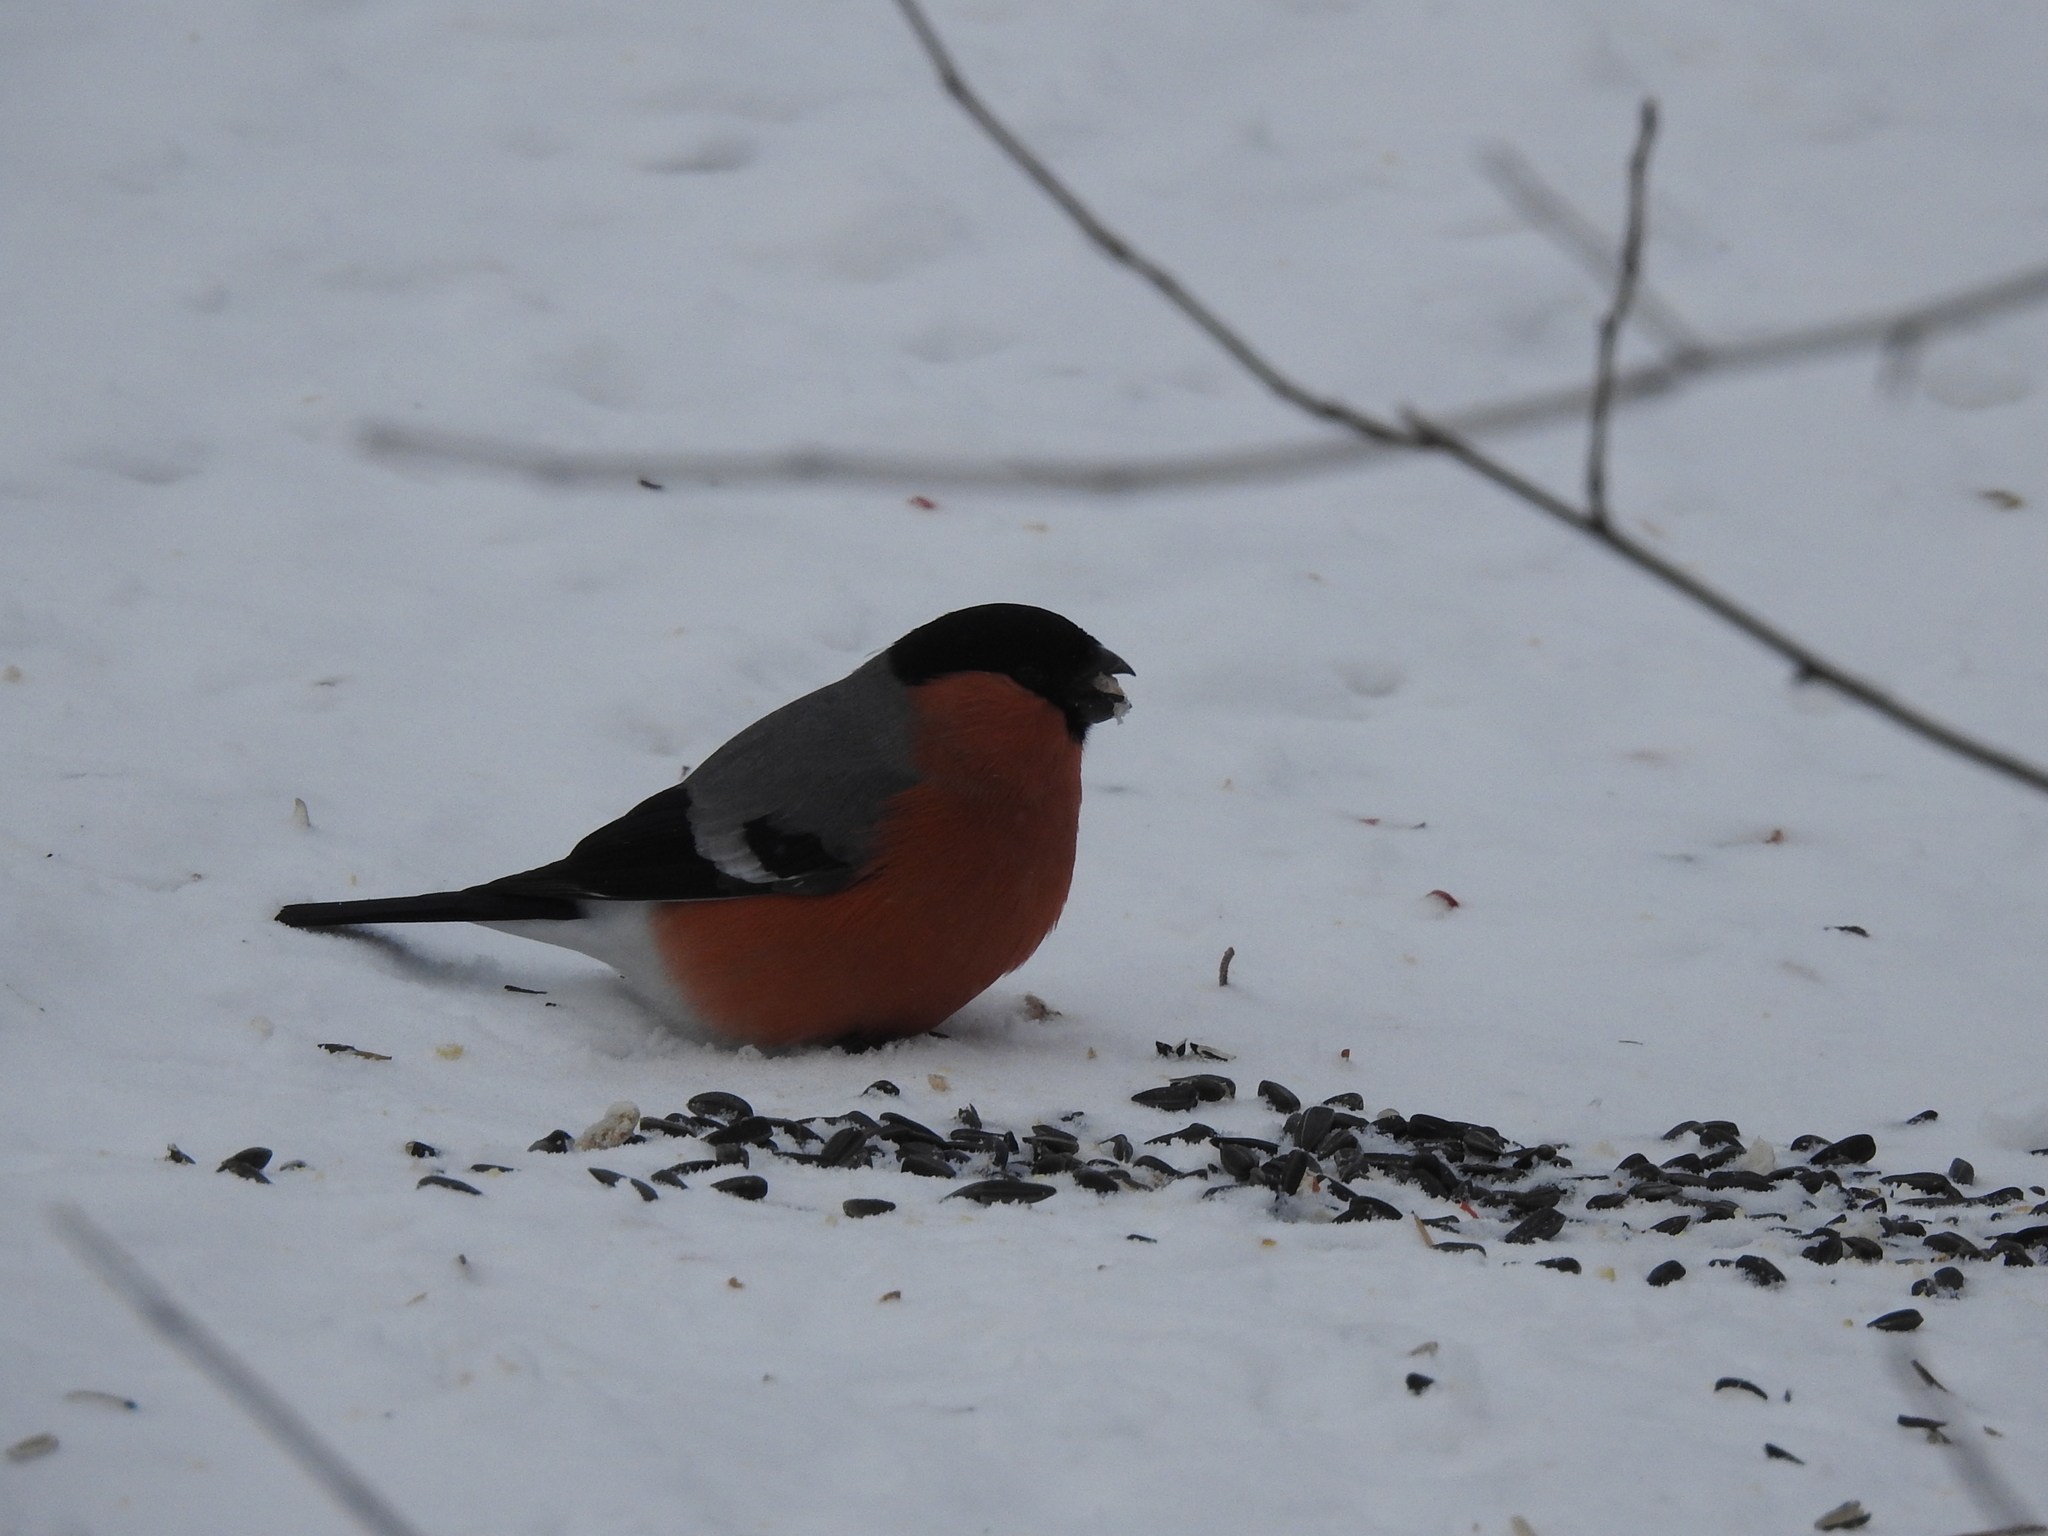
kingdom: Animalia
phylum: Chordata
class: Aves
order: Passeriformes
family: Fringillidae
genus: Pyrrhula
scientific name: Pyrrhula pyrrhula
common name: Eurasian bullfinch
